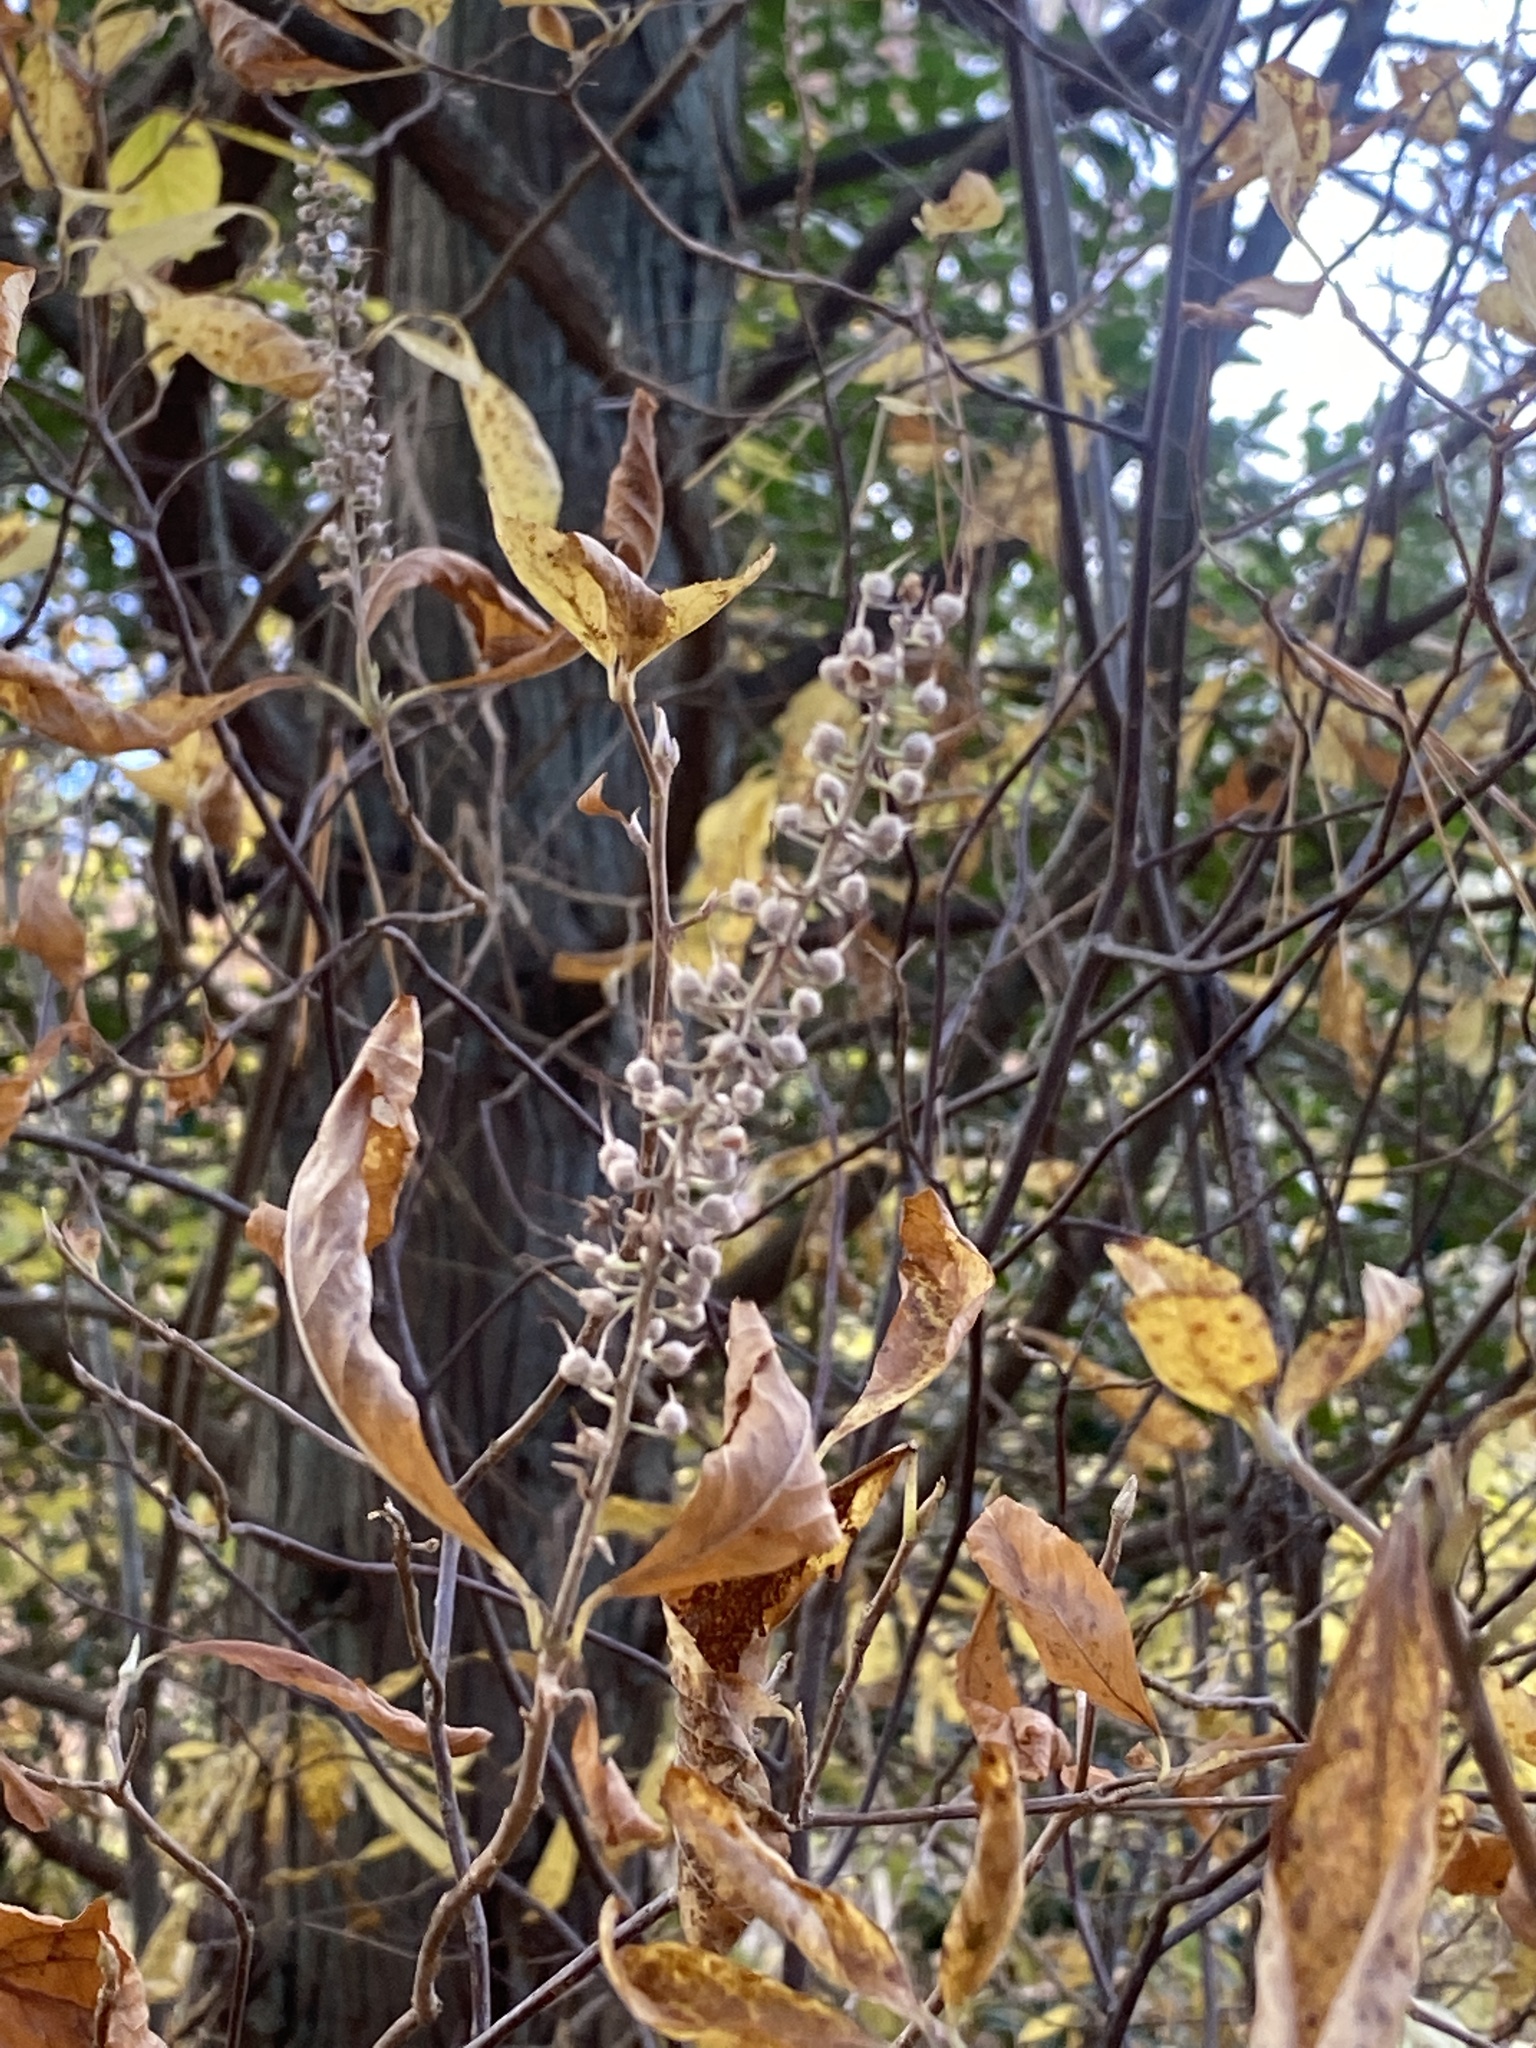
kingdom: Plantae
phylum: Tracheophyta
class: Magnoliopsida
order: Ericales
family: Clethraceae
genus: Clethra
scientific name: Clethra alnifolia
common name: Sweet pepperbush
